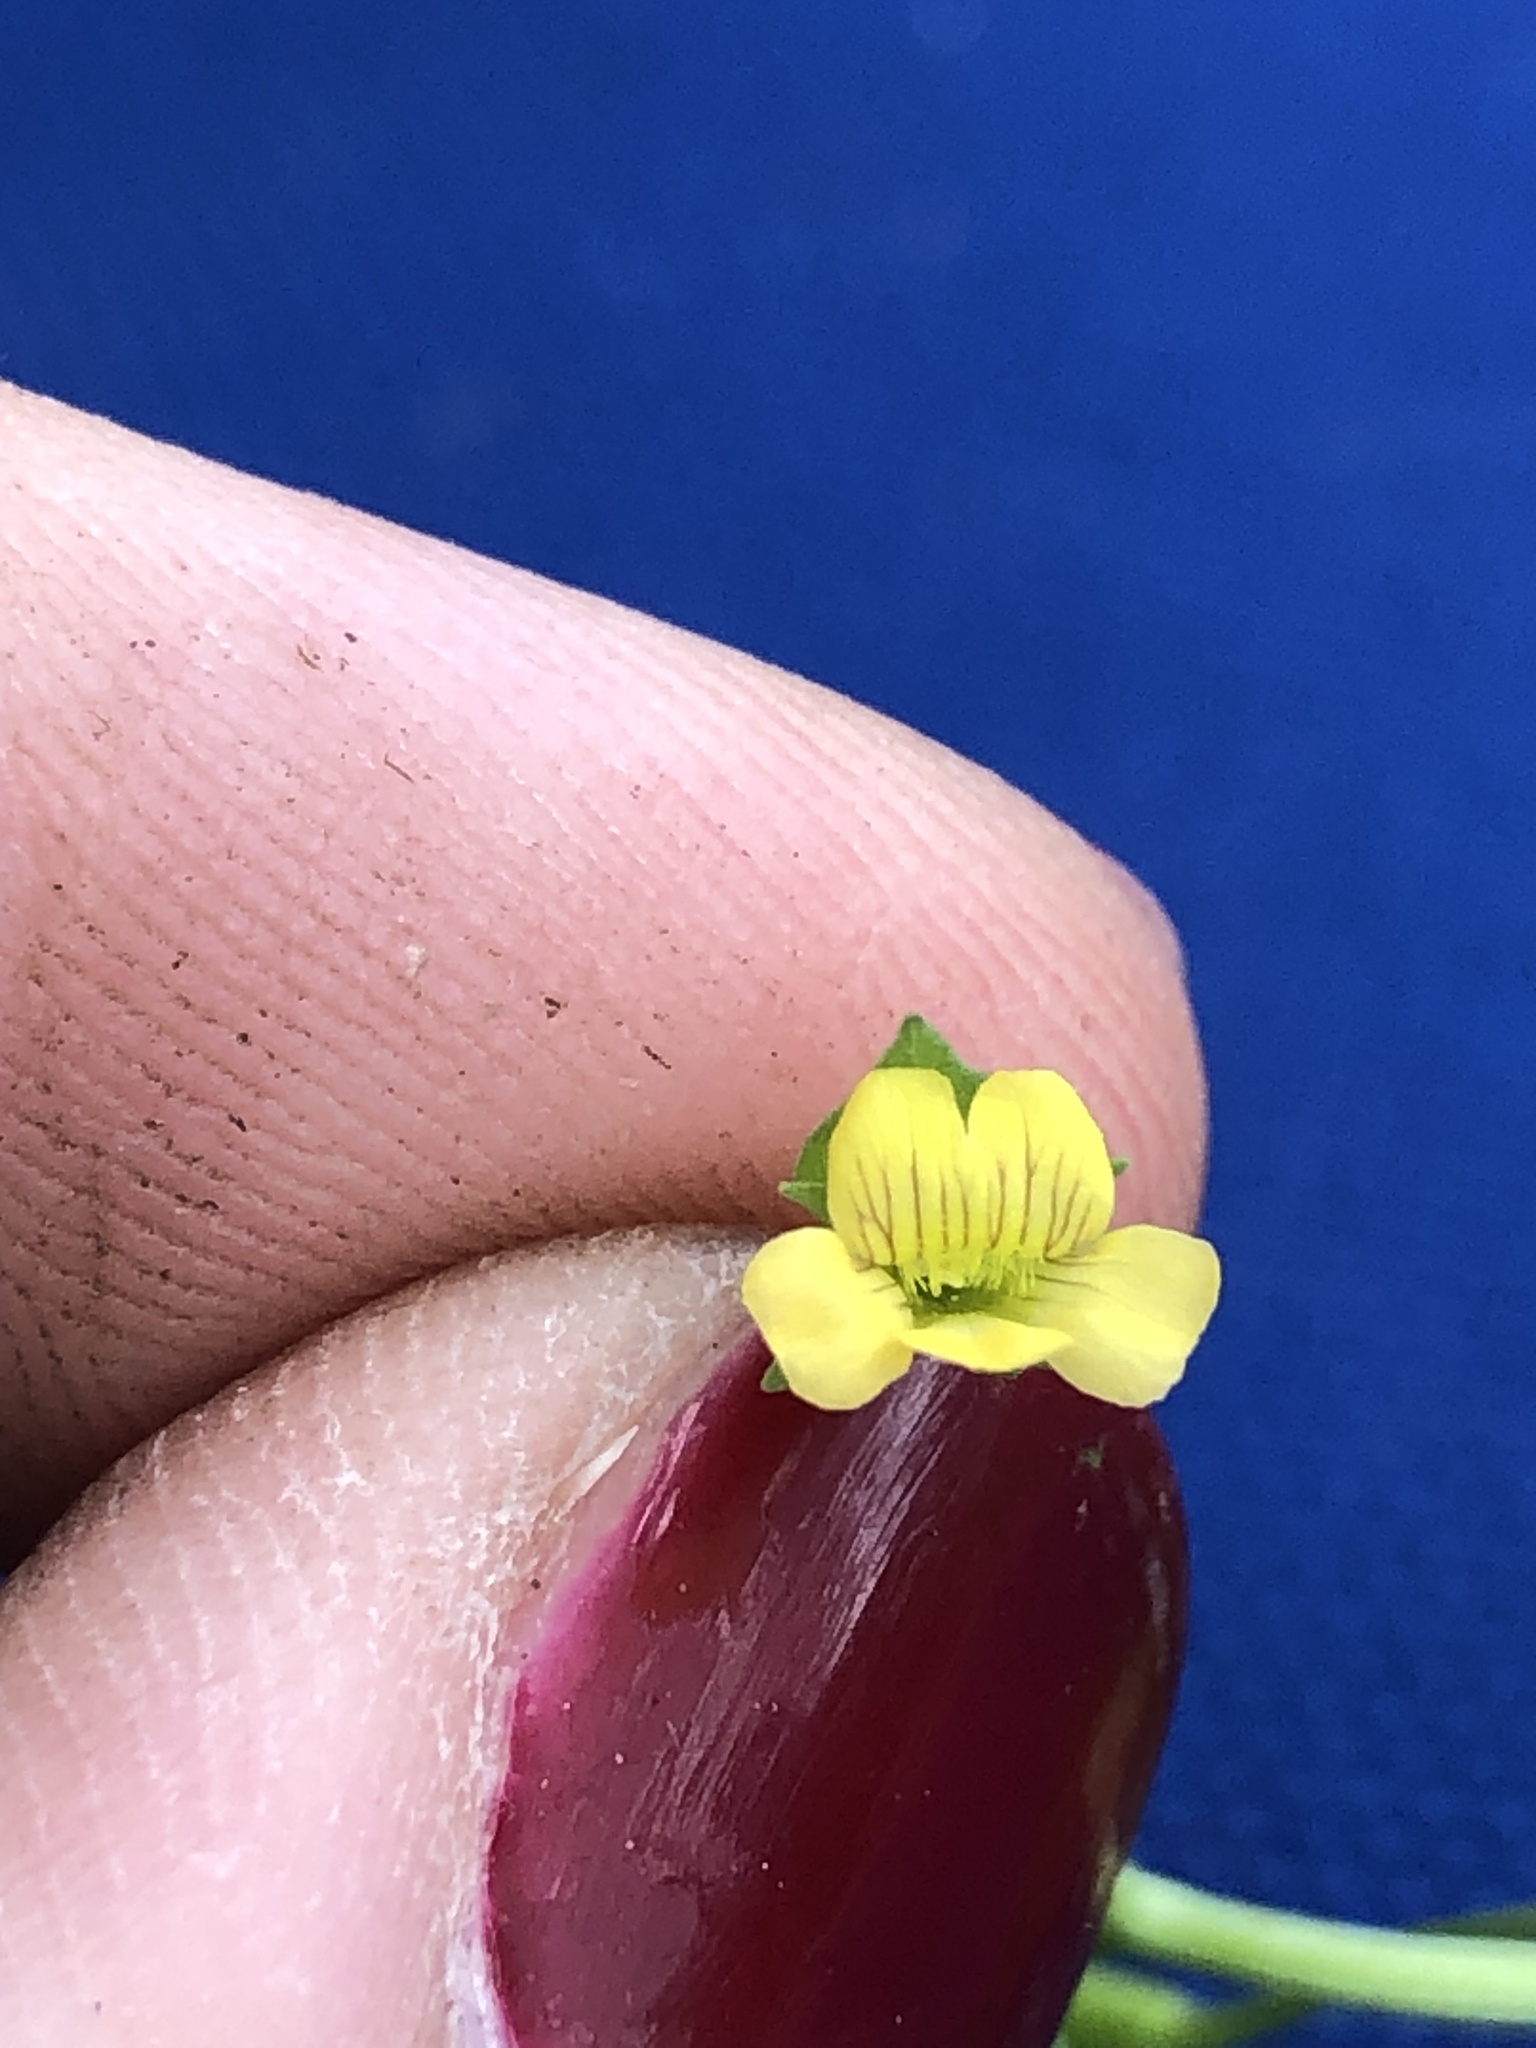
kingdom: Plantae
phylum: Tracheophyta
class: Magnoliopsida
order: Lamiales
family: Plantaginaceae
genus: Mecardonia
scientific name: Mecardonia procumbens
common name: Baby jump-up
